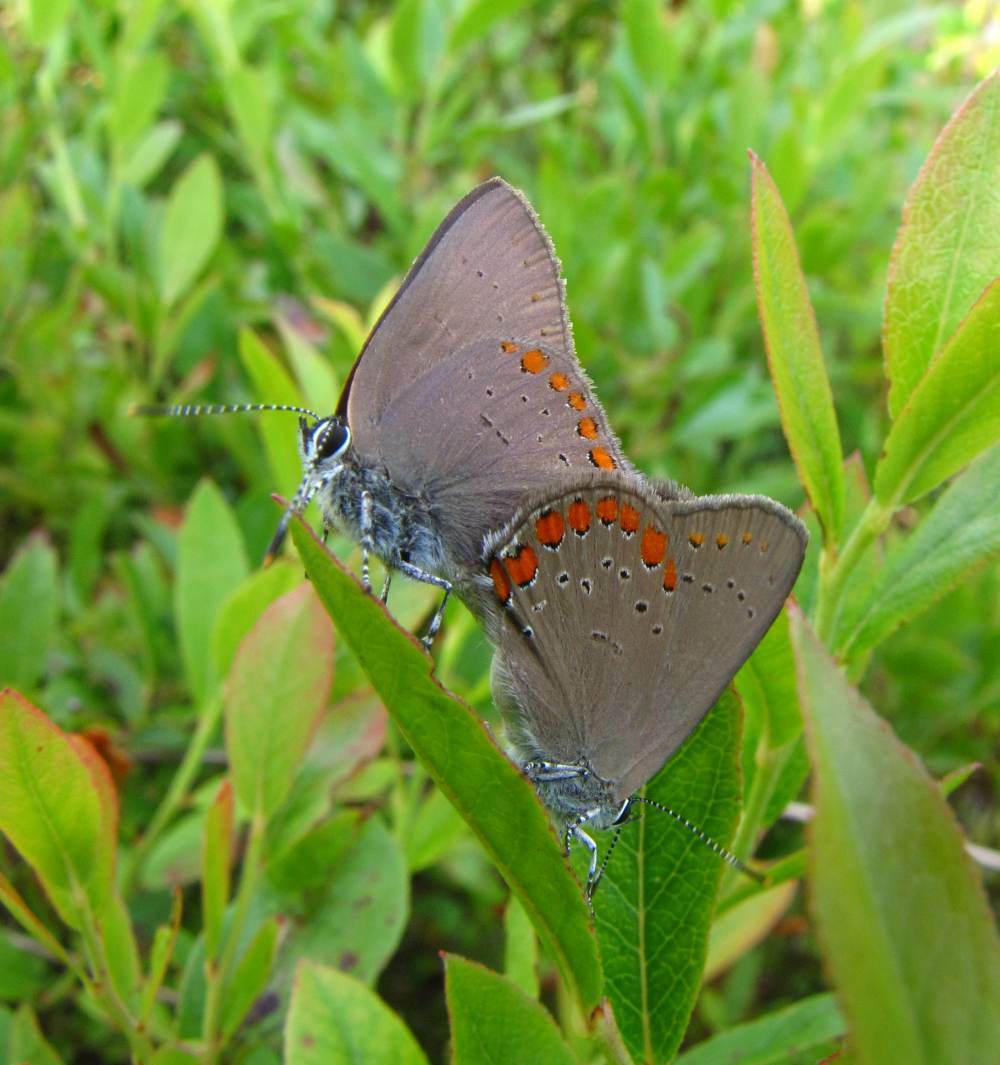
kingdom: Animalia
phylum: Arthropoda
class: Insecta
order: Lepidoptera
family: Lycaenidae
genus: Harkenclenus
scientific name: Harkenclenus titus
